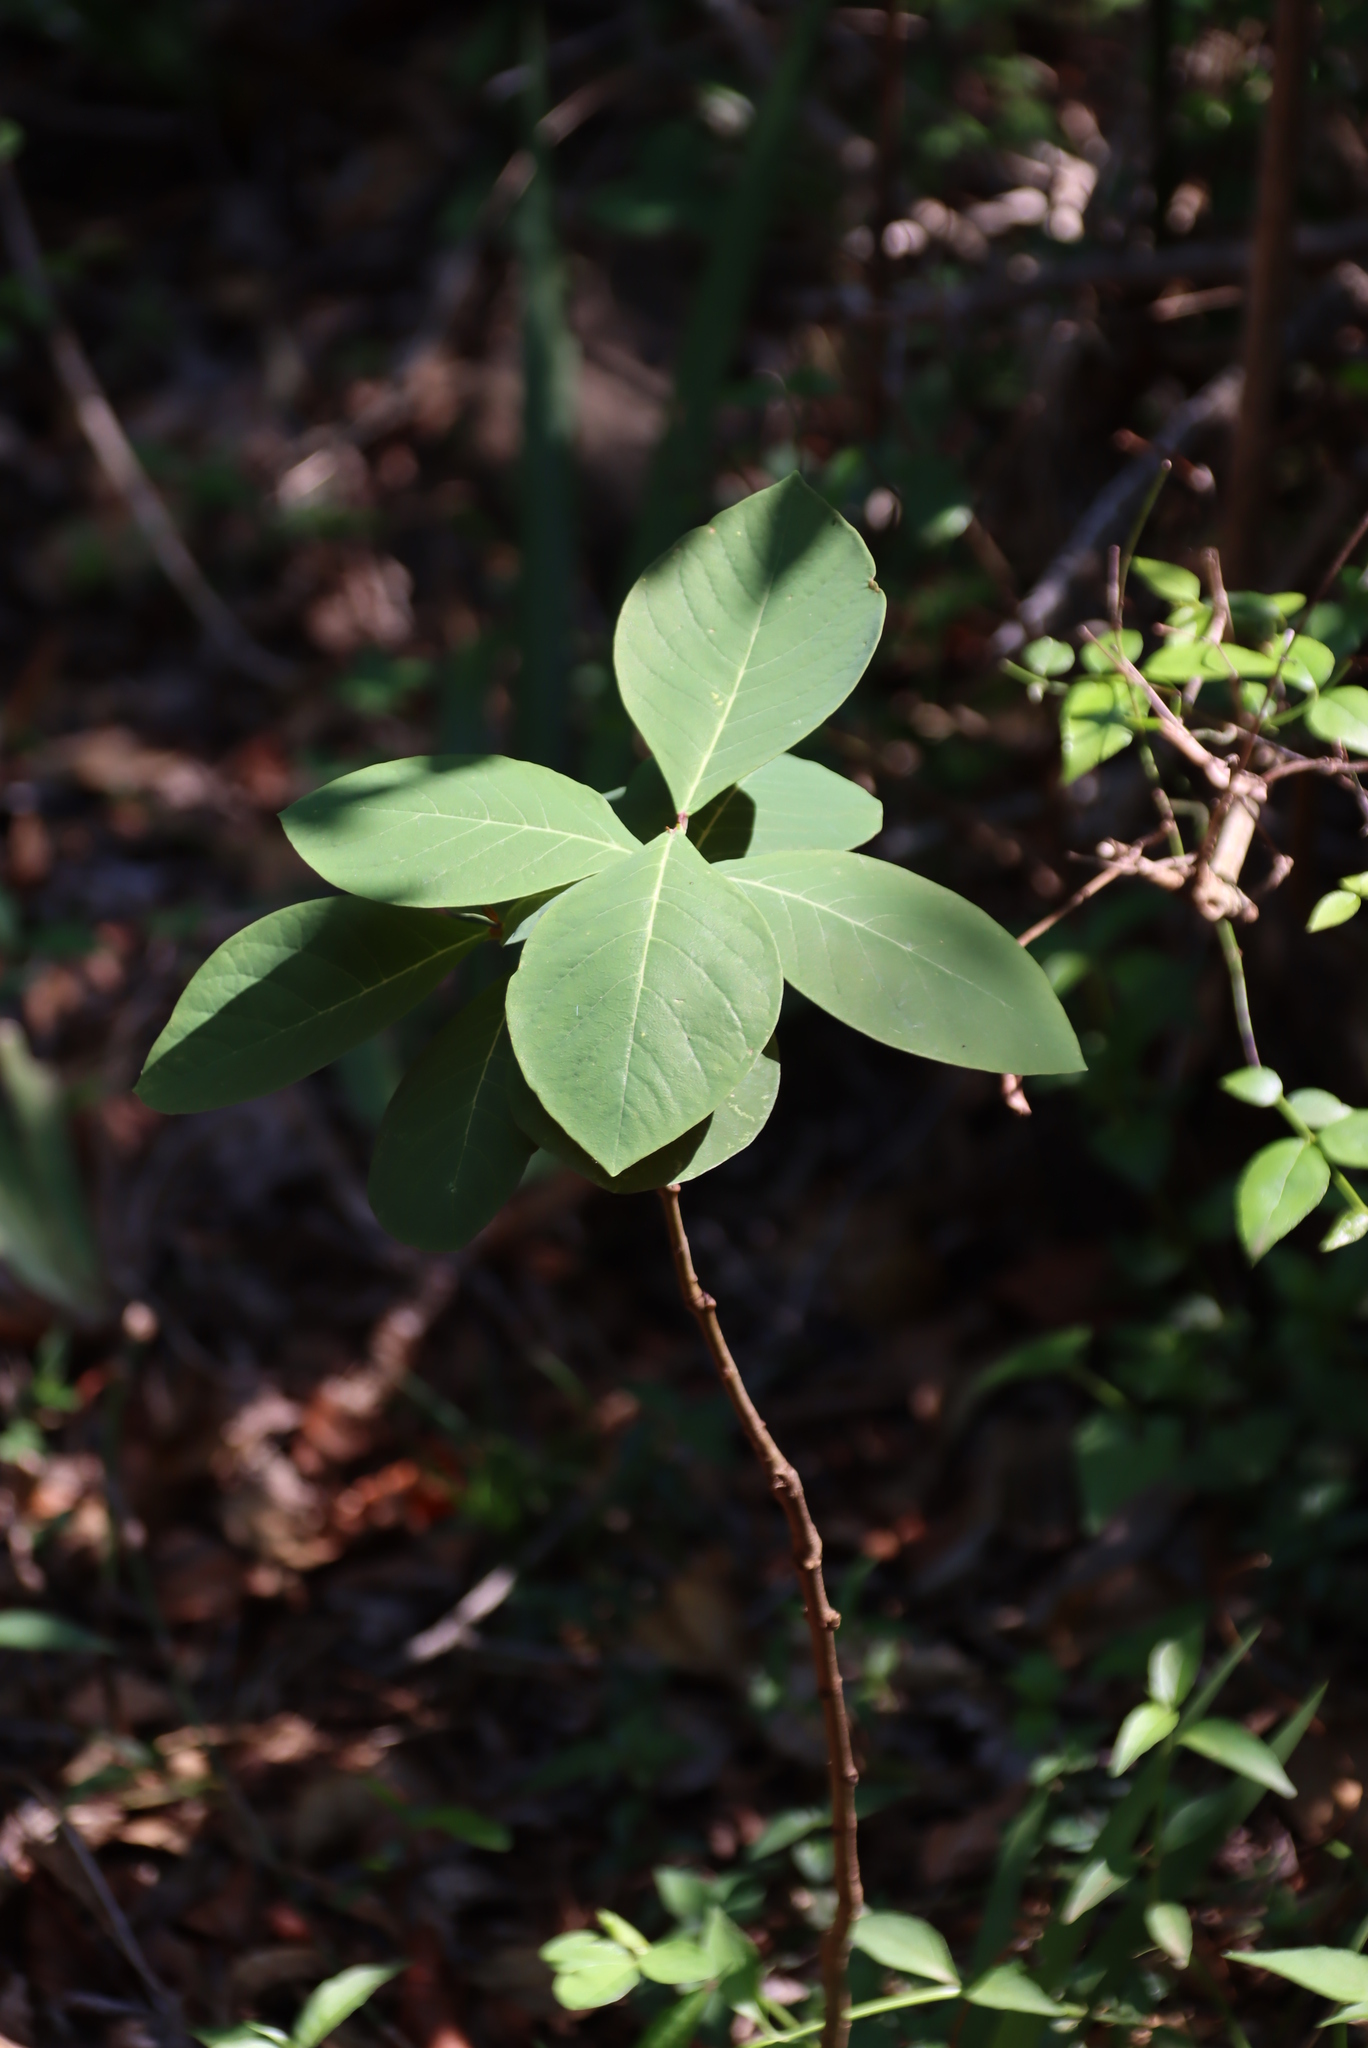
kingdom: Plantae
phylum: Tracheophyta
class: Magnoliopsida
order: Malvales
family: Thymelaeaceae
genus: Dais
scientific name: Dais cotinifolia
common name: Pompon tree
